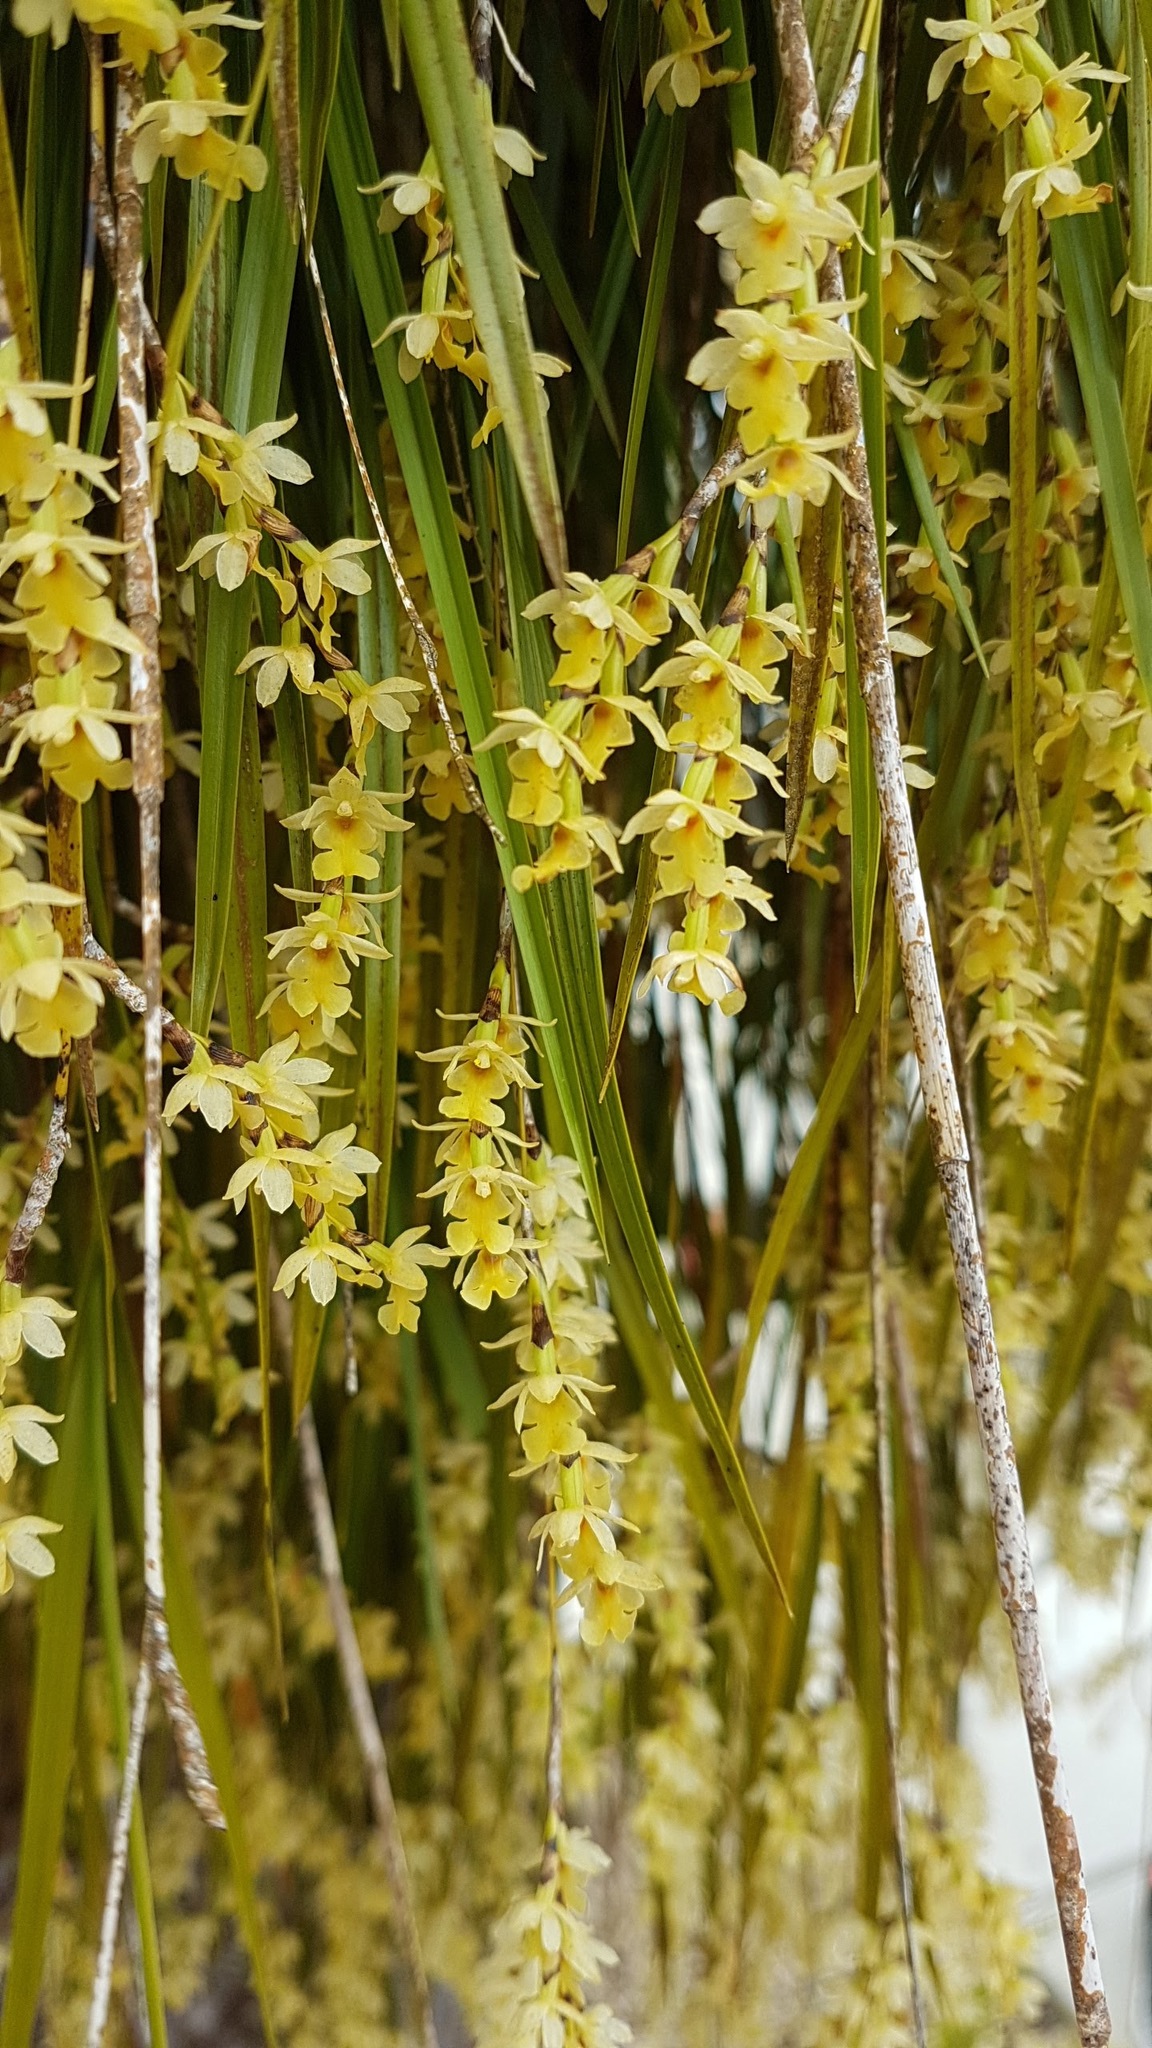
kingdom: Plantae
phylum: Tracheophyta
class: Liliopsida
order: Asparagales
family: Orchidaceae
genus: Earina
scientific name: Earina mucronata
